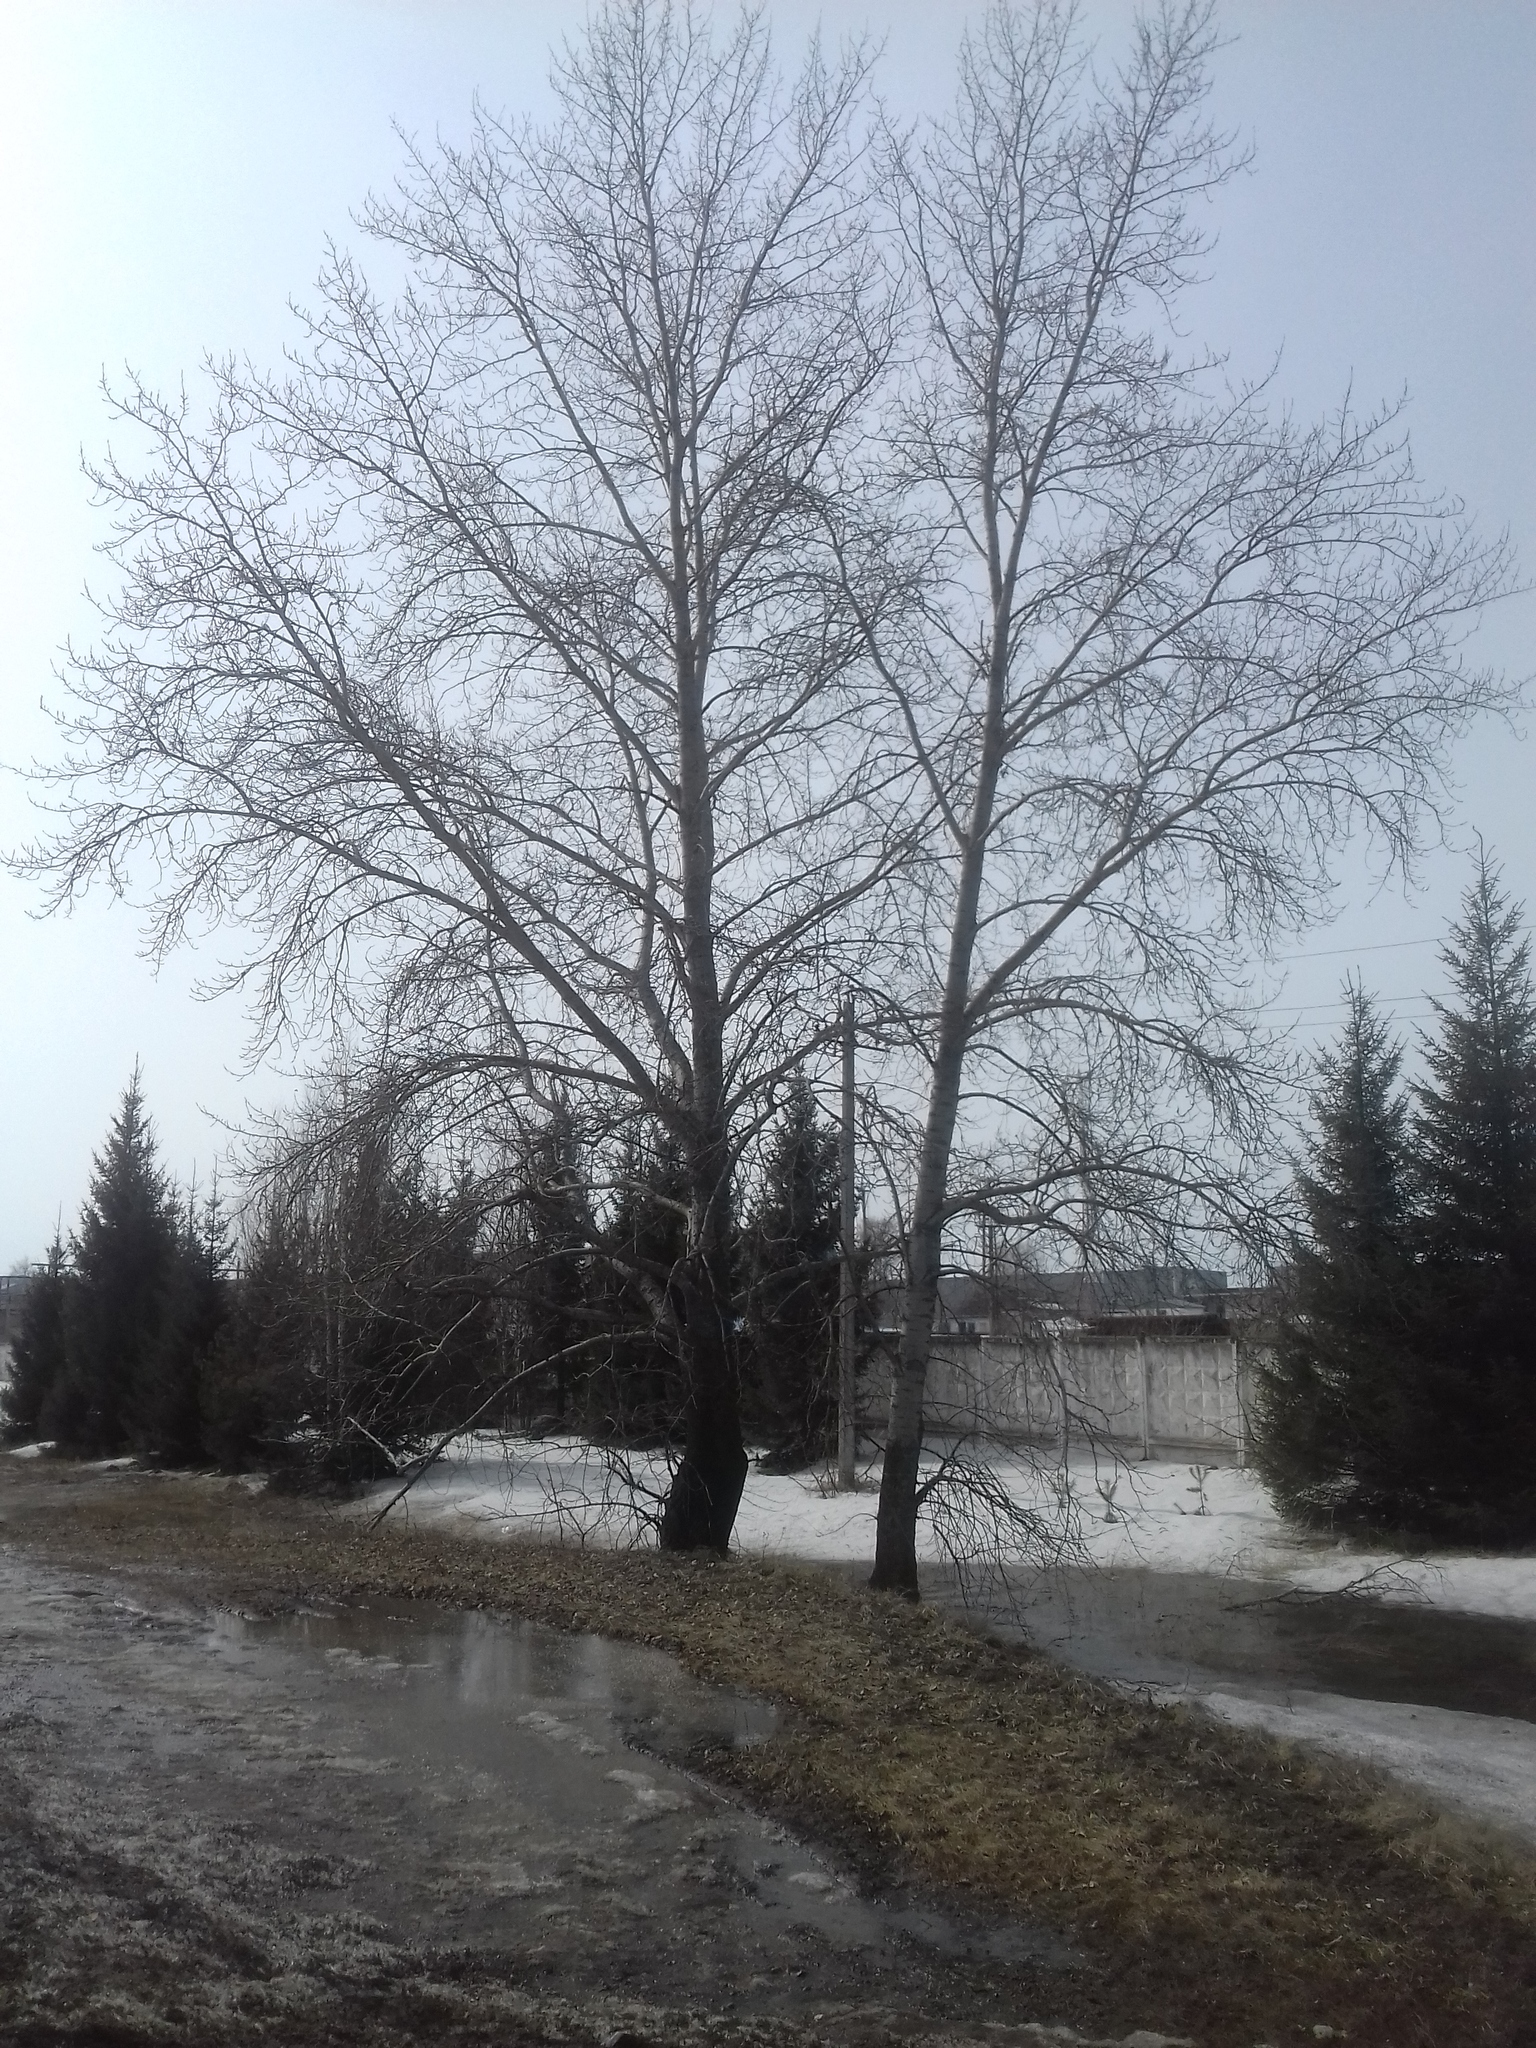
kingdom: Plantae
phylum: Tracheophyta
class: Magnoliopsida
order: Malpighiales
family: Salicaceae
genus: Populus
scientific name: Populus nigra
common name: Black poplar
